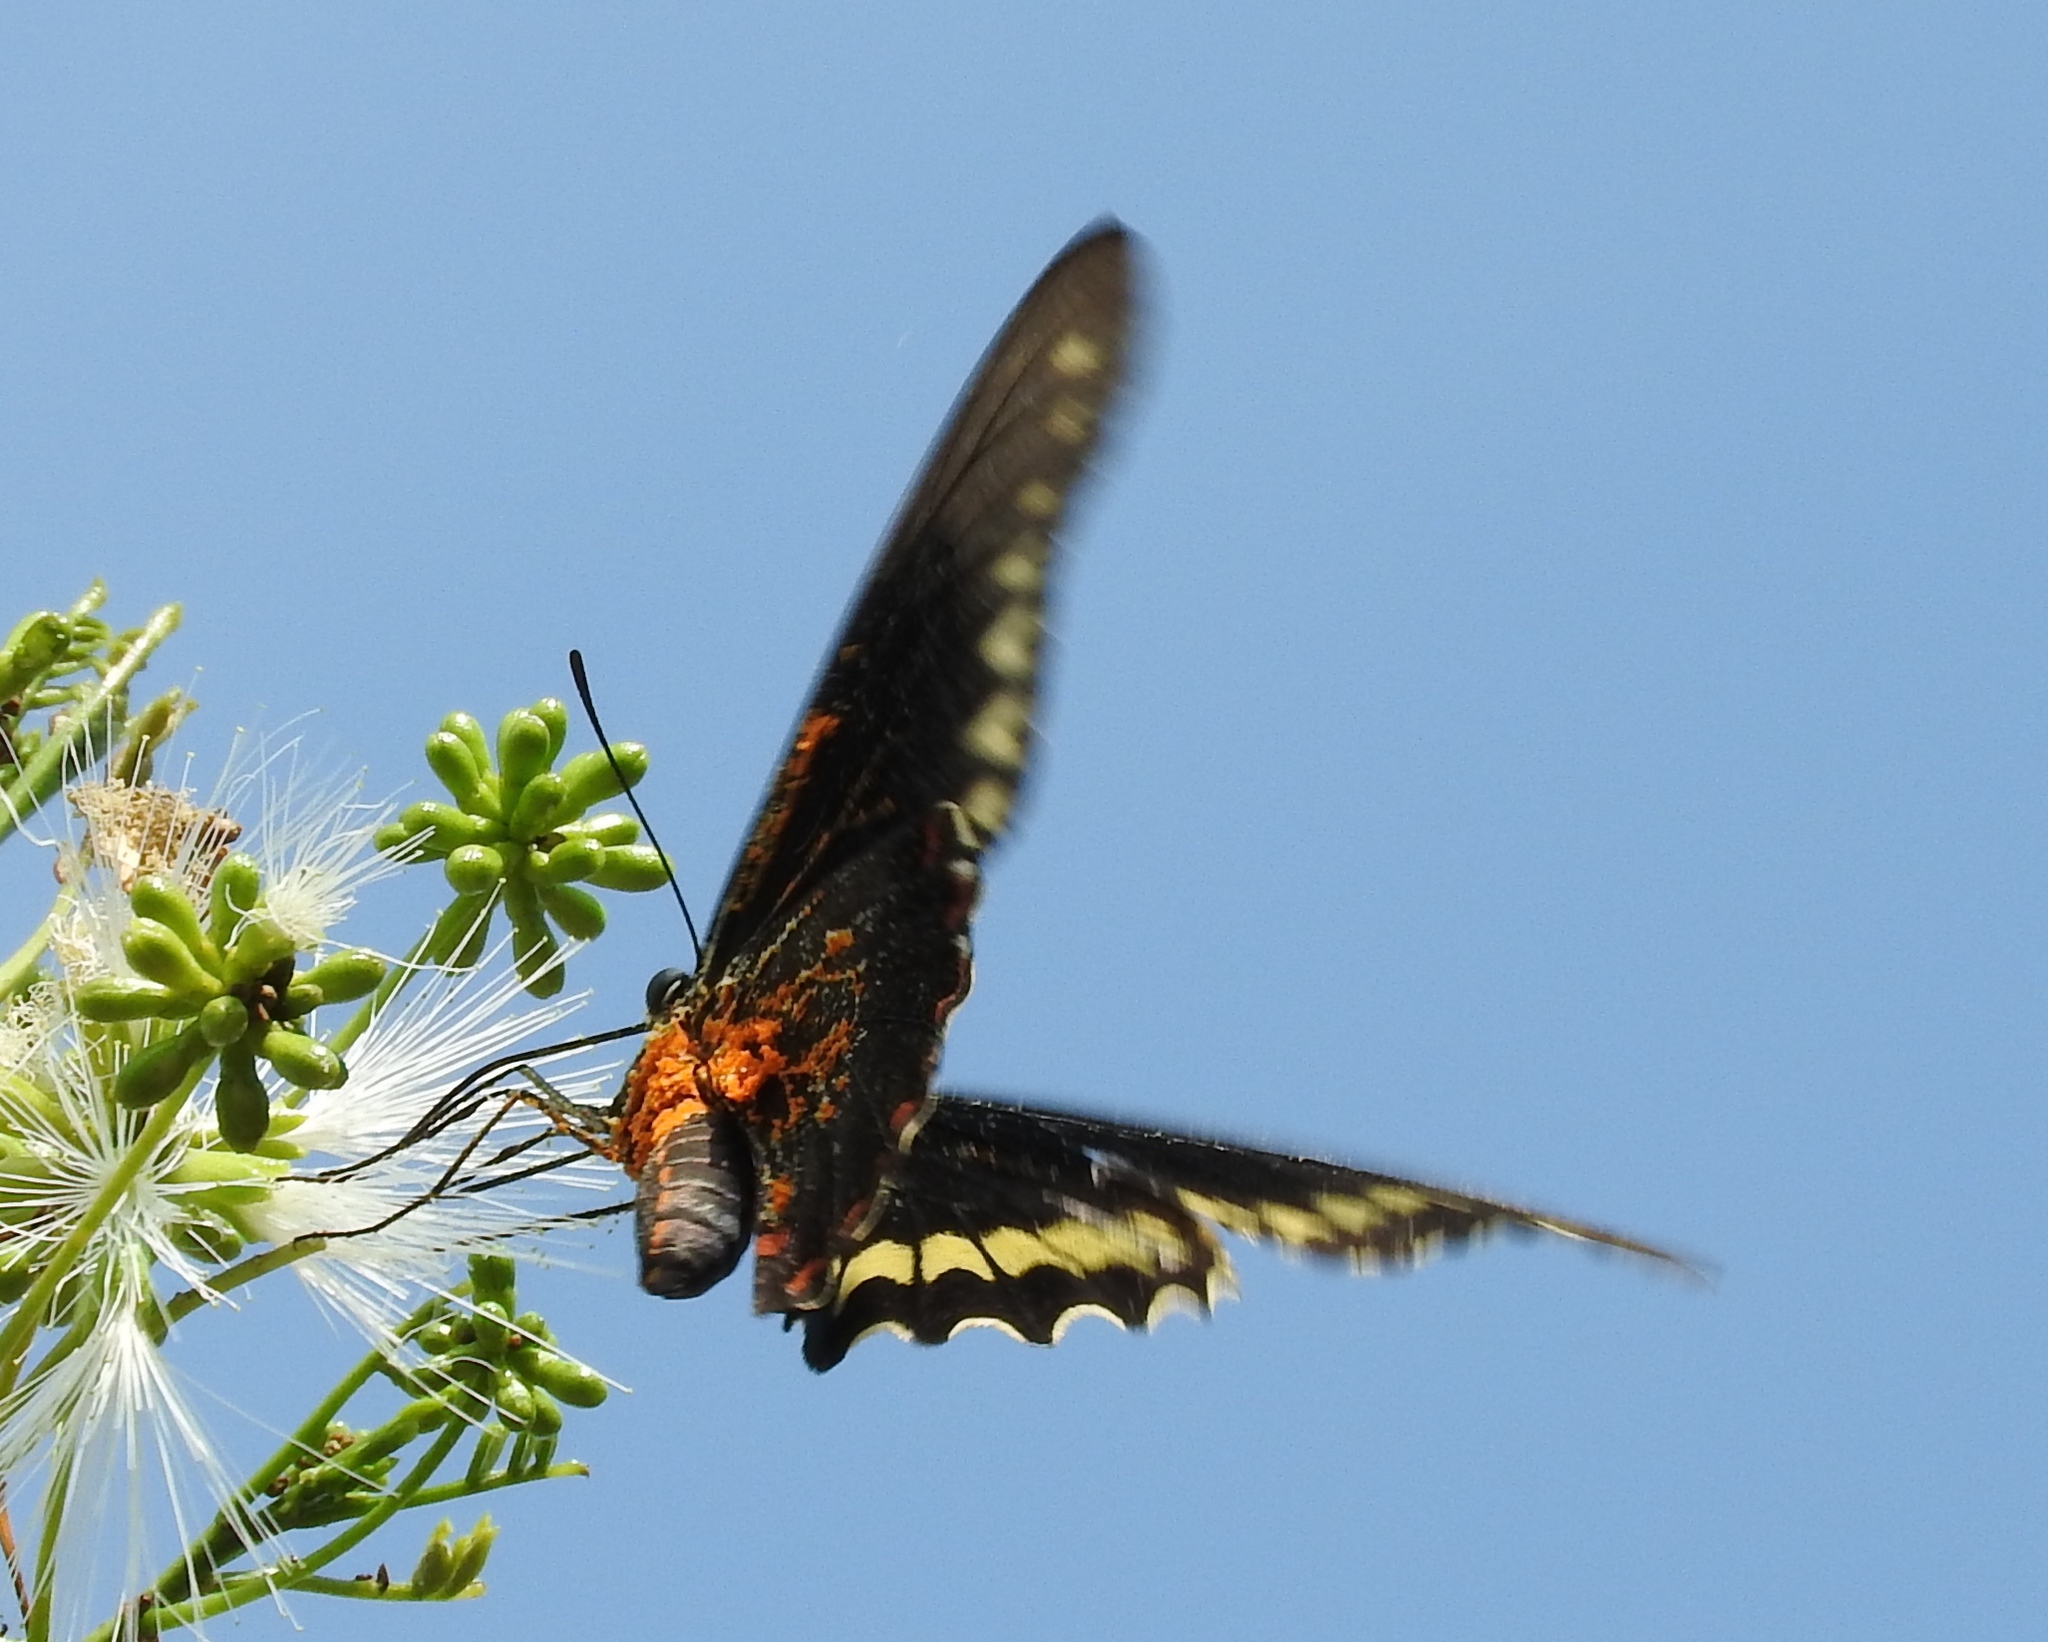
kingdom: Animalia
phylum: Arthropoda
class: Insecta
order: Lepidoptera
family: Papilionidae
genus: Battus
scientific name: Battus polydamas
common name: Polydamas swallowtail
